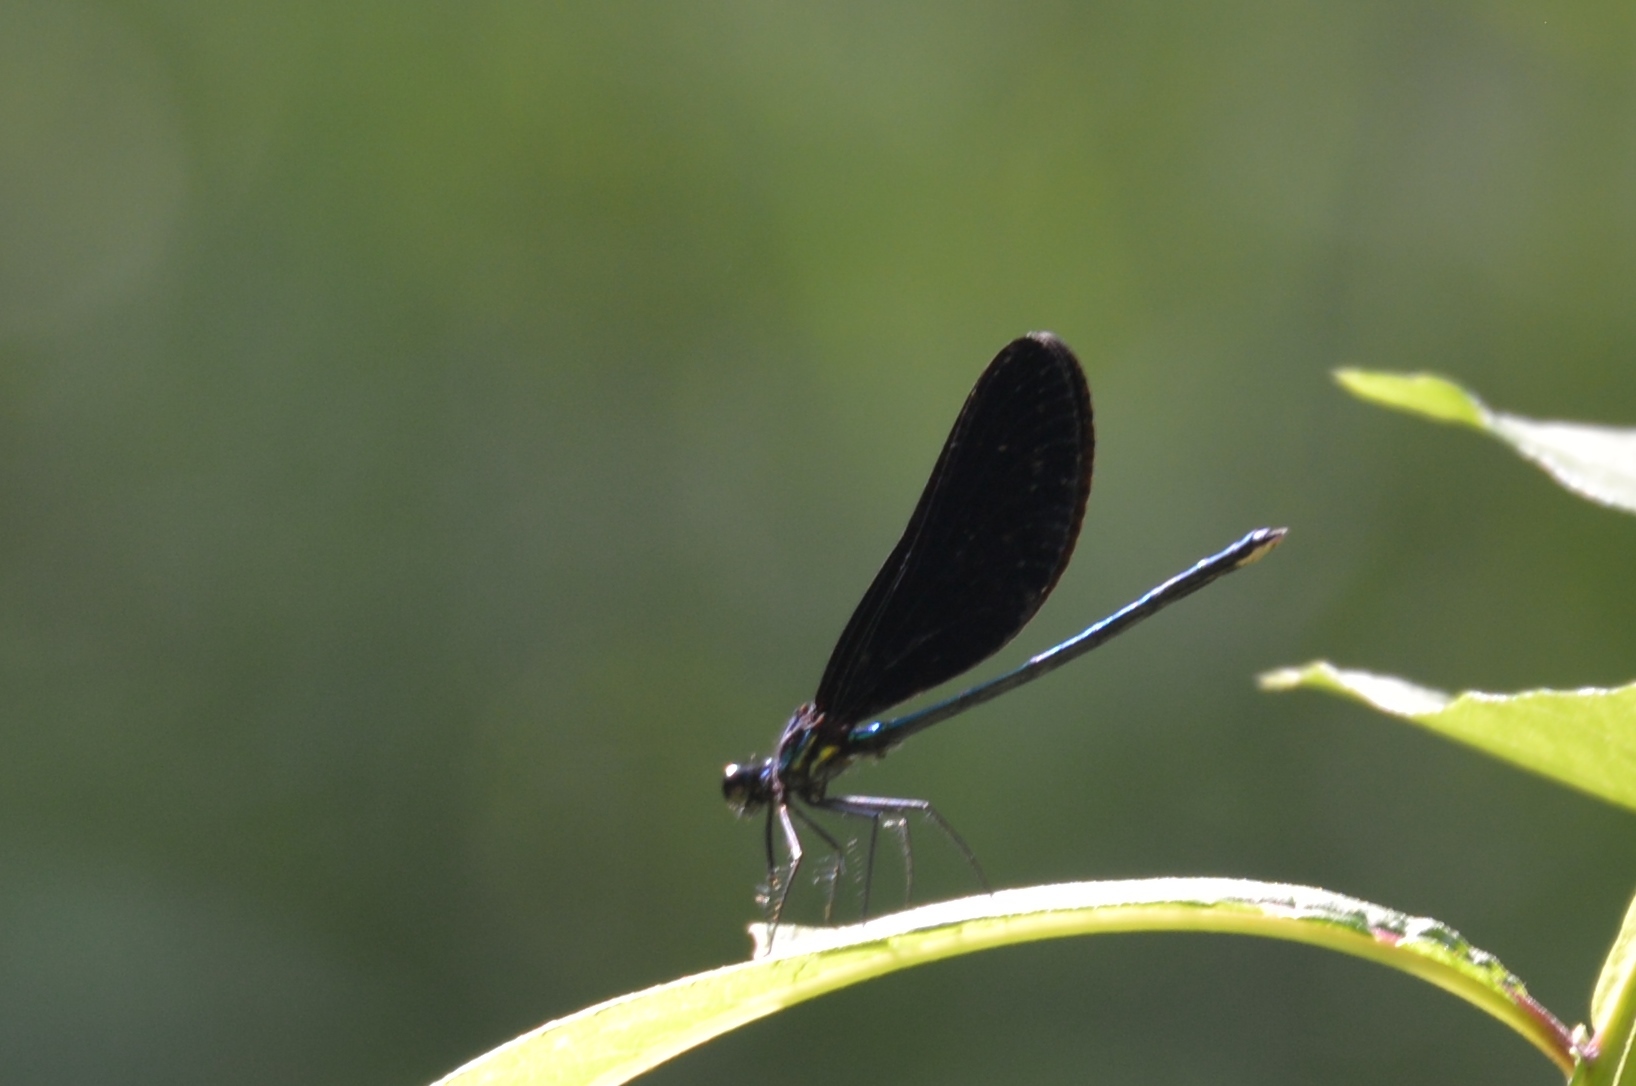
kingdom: Animalia
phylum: Arthropoda
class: Insecta
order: Odonata
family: Calopterygidae
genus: Calopteryx
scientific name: Calopteryx maculata
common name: Ebony jewelwing
